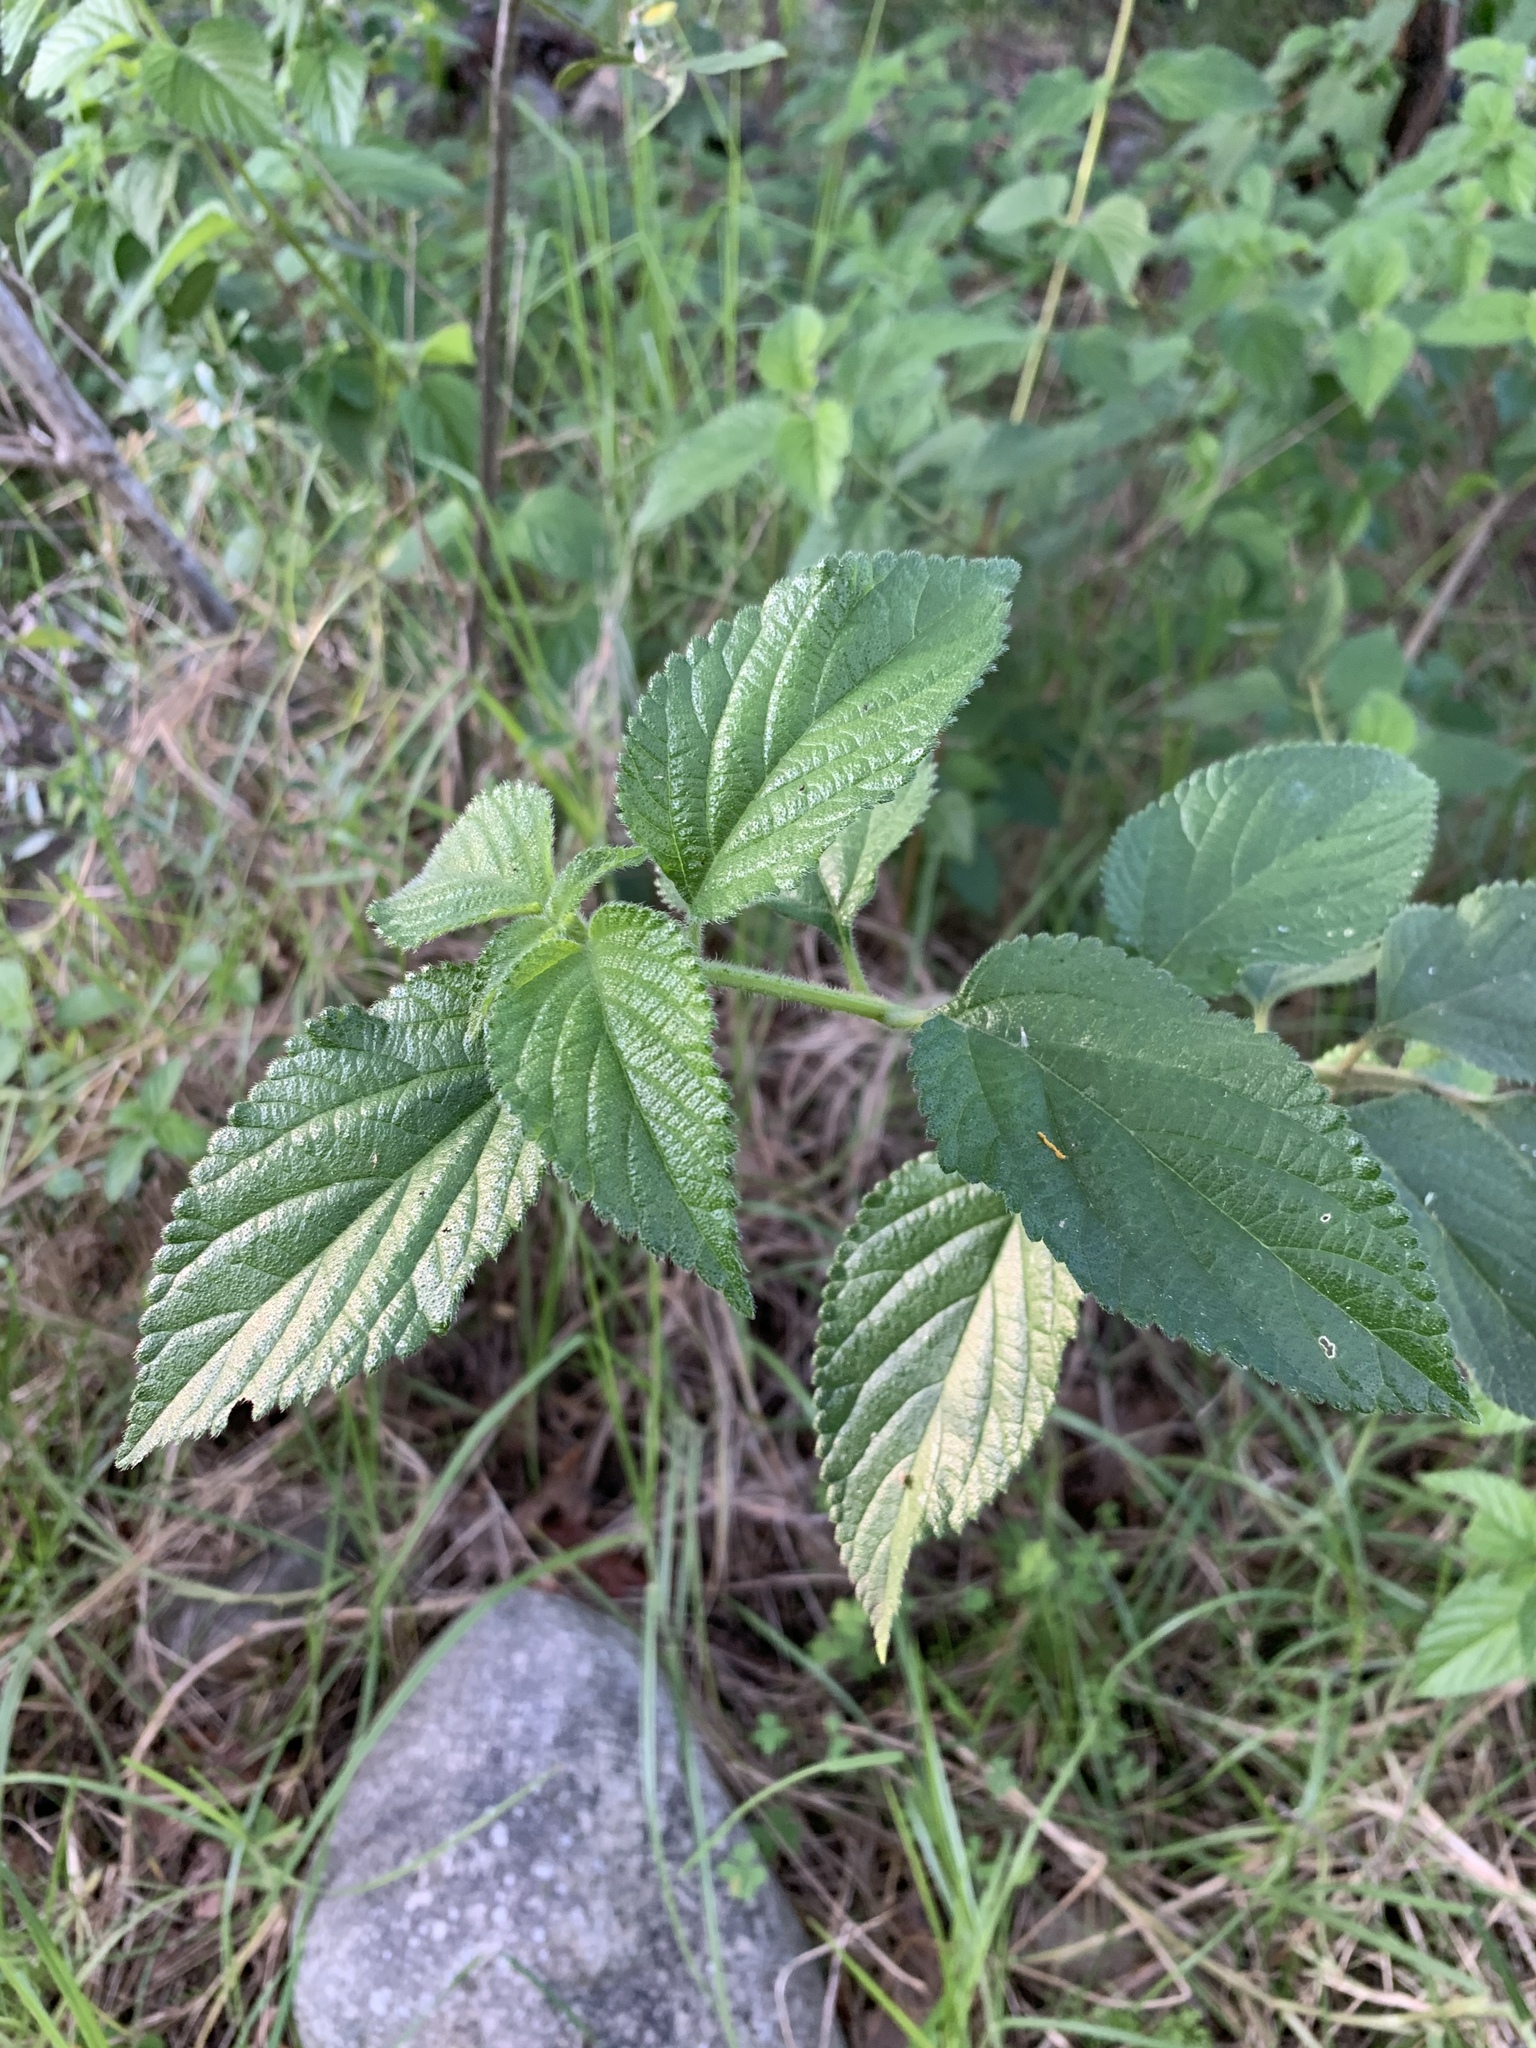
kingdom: Plantae
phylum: Tracheophyta
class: Magnoliopsida
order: Lamiales
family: Verbenaceae
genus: Lantana
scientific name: Lantana camara
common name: Lantana
